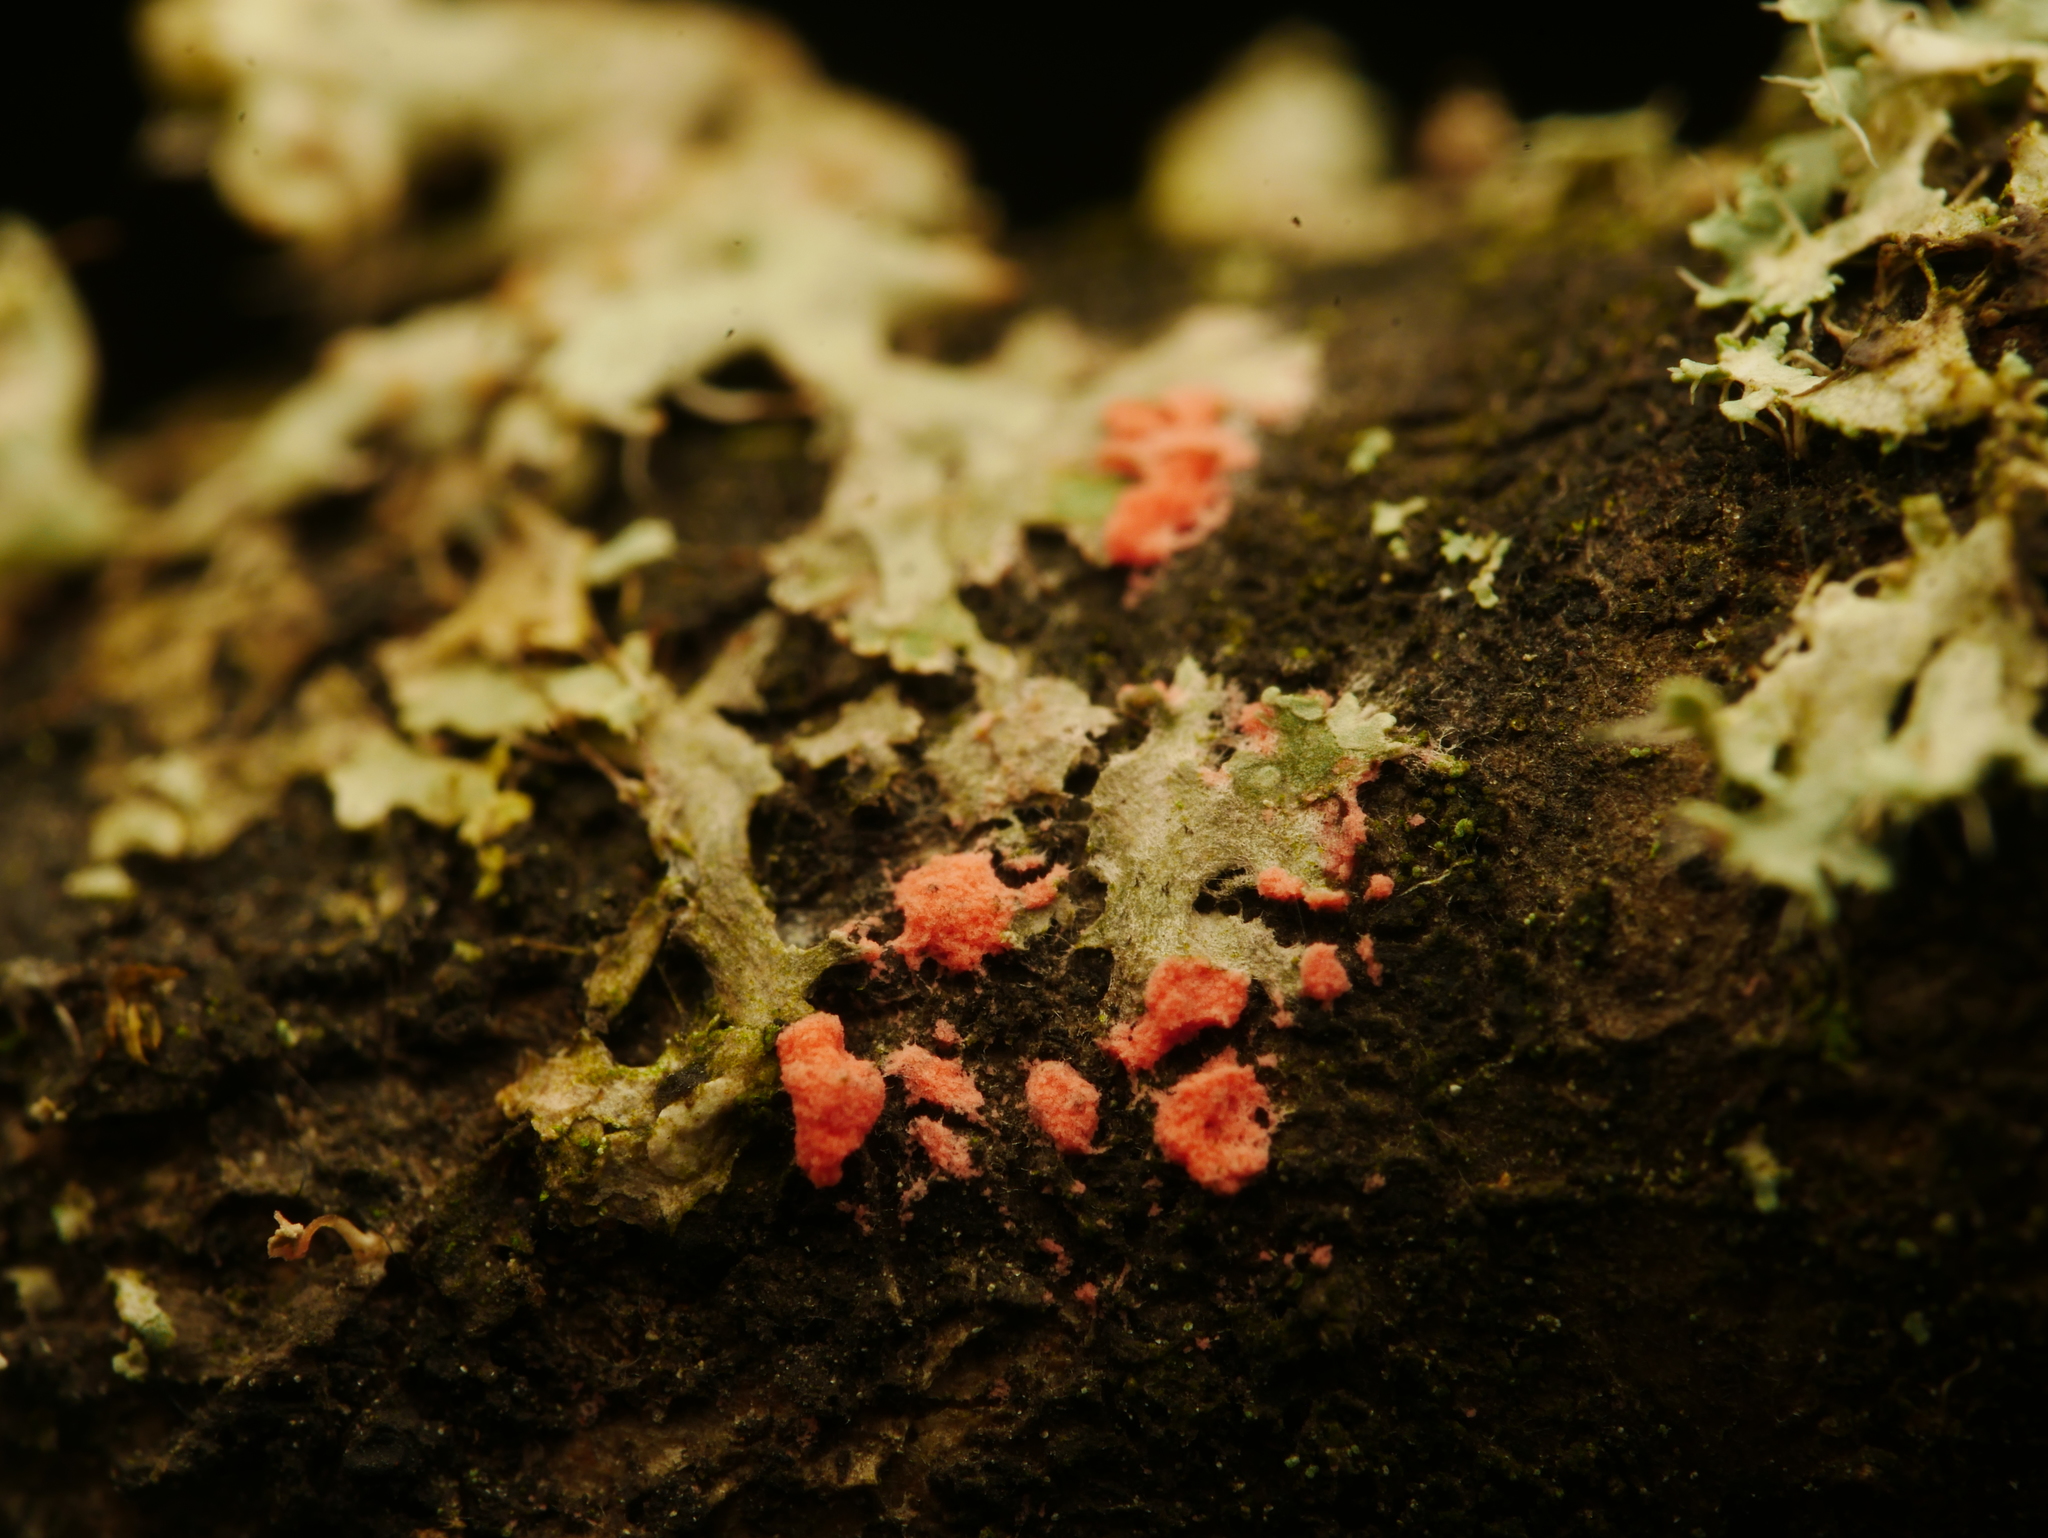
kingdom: Fungi
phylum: Ascomycota
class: Sordariomycetes
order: Hypocreales
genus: Illosporiopsis
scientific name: Illosporiopsis christiansenii
